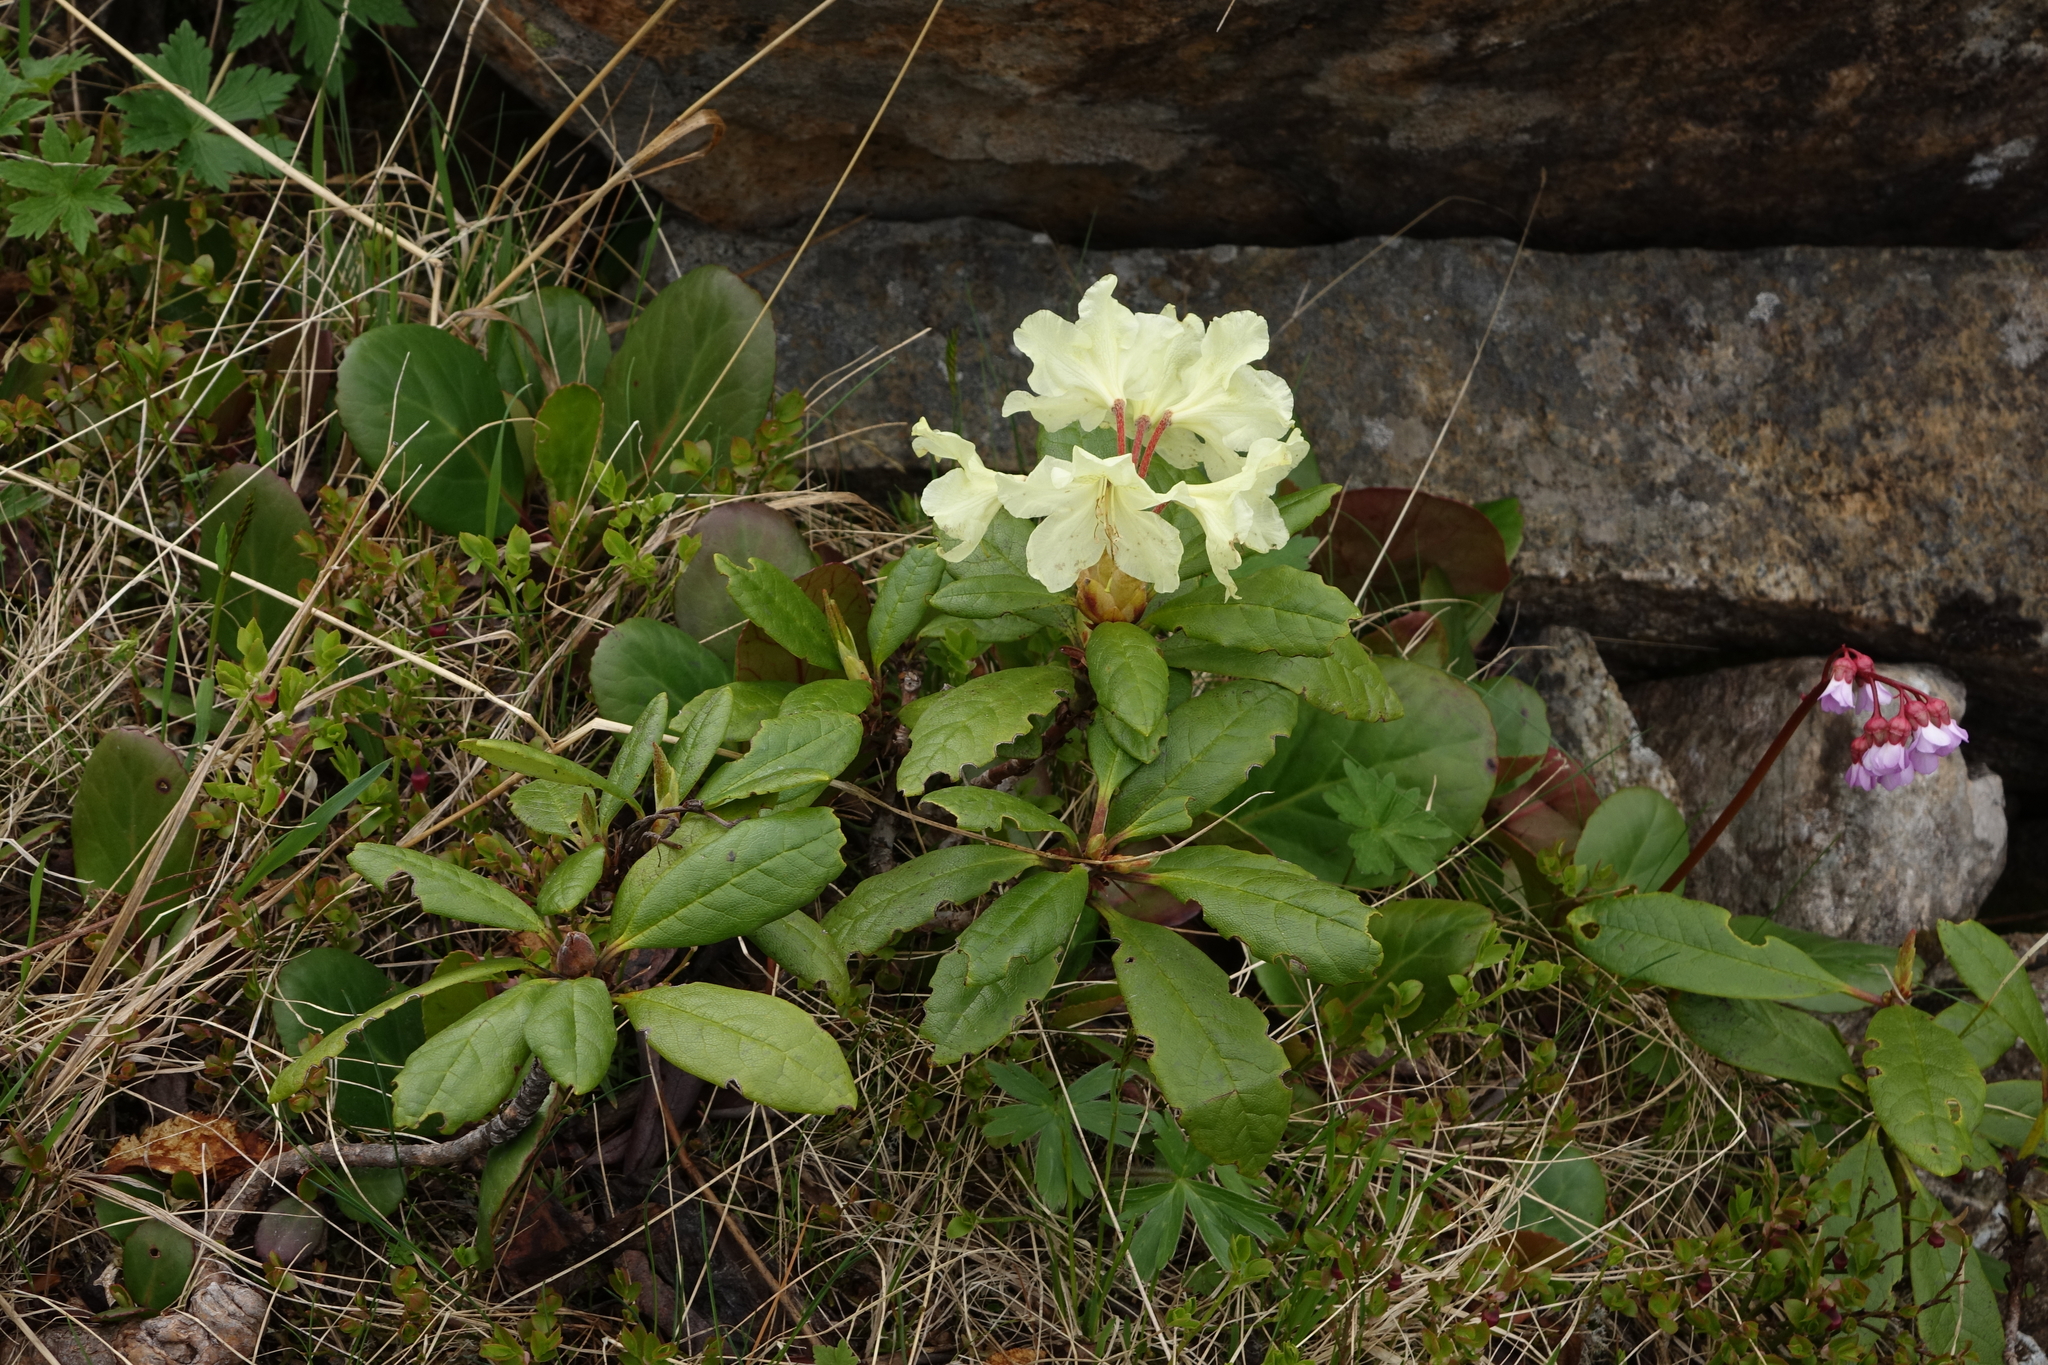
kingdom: Plantae
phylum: Tracheophyta
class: Magnoliopsida
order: Ericales
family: Ericaceae
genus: Rhododendron
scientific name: Rhododendron aureum
